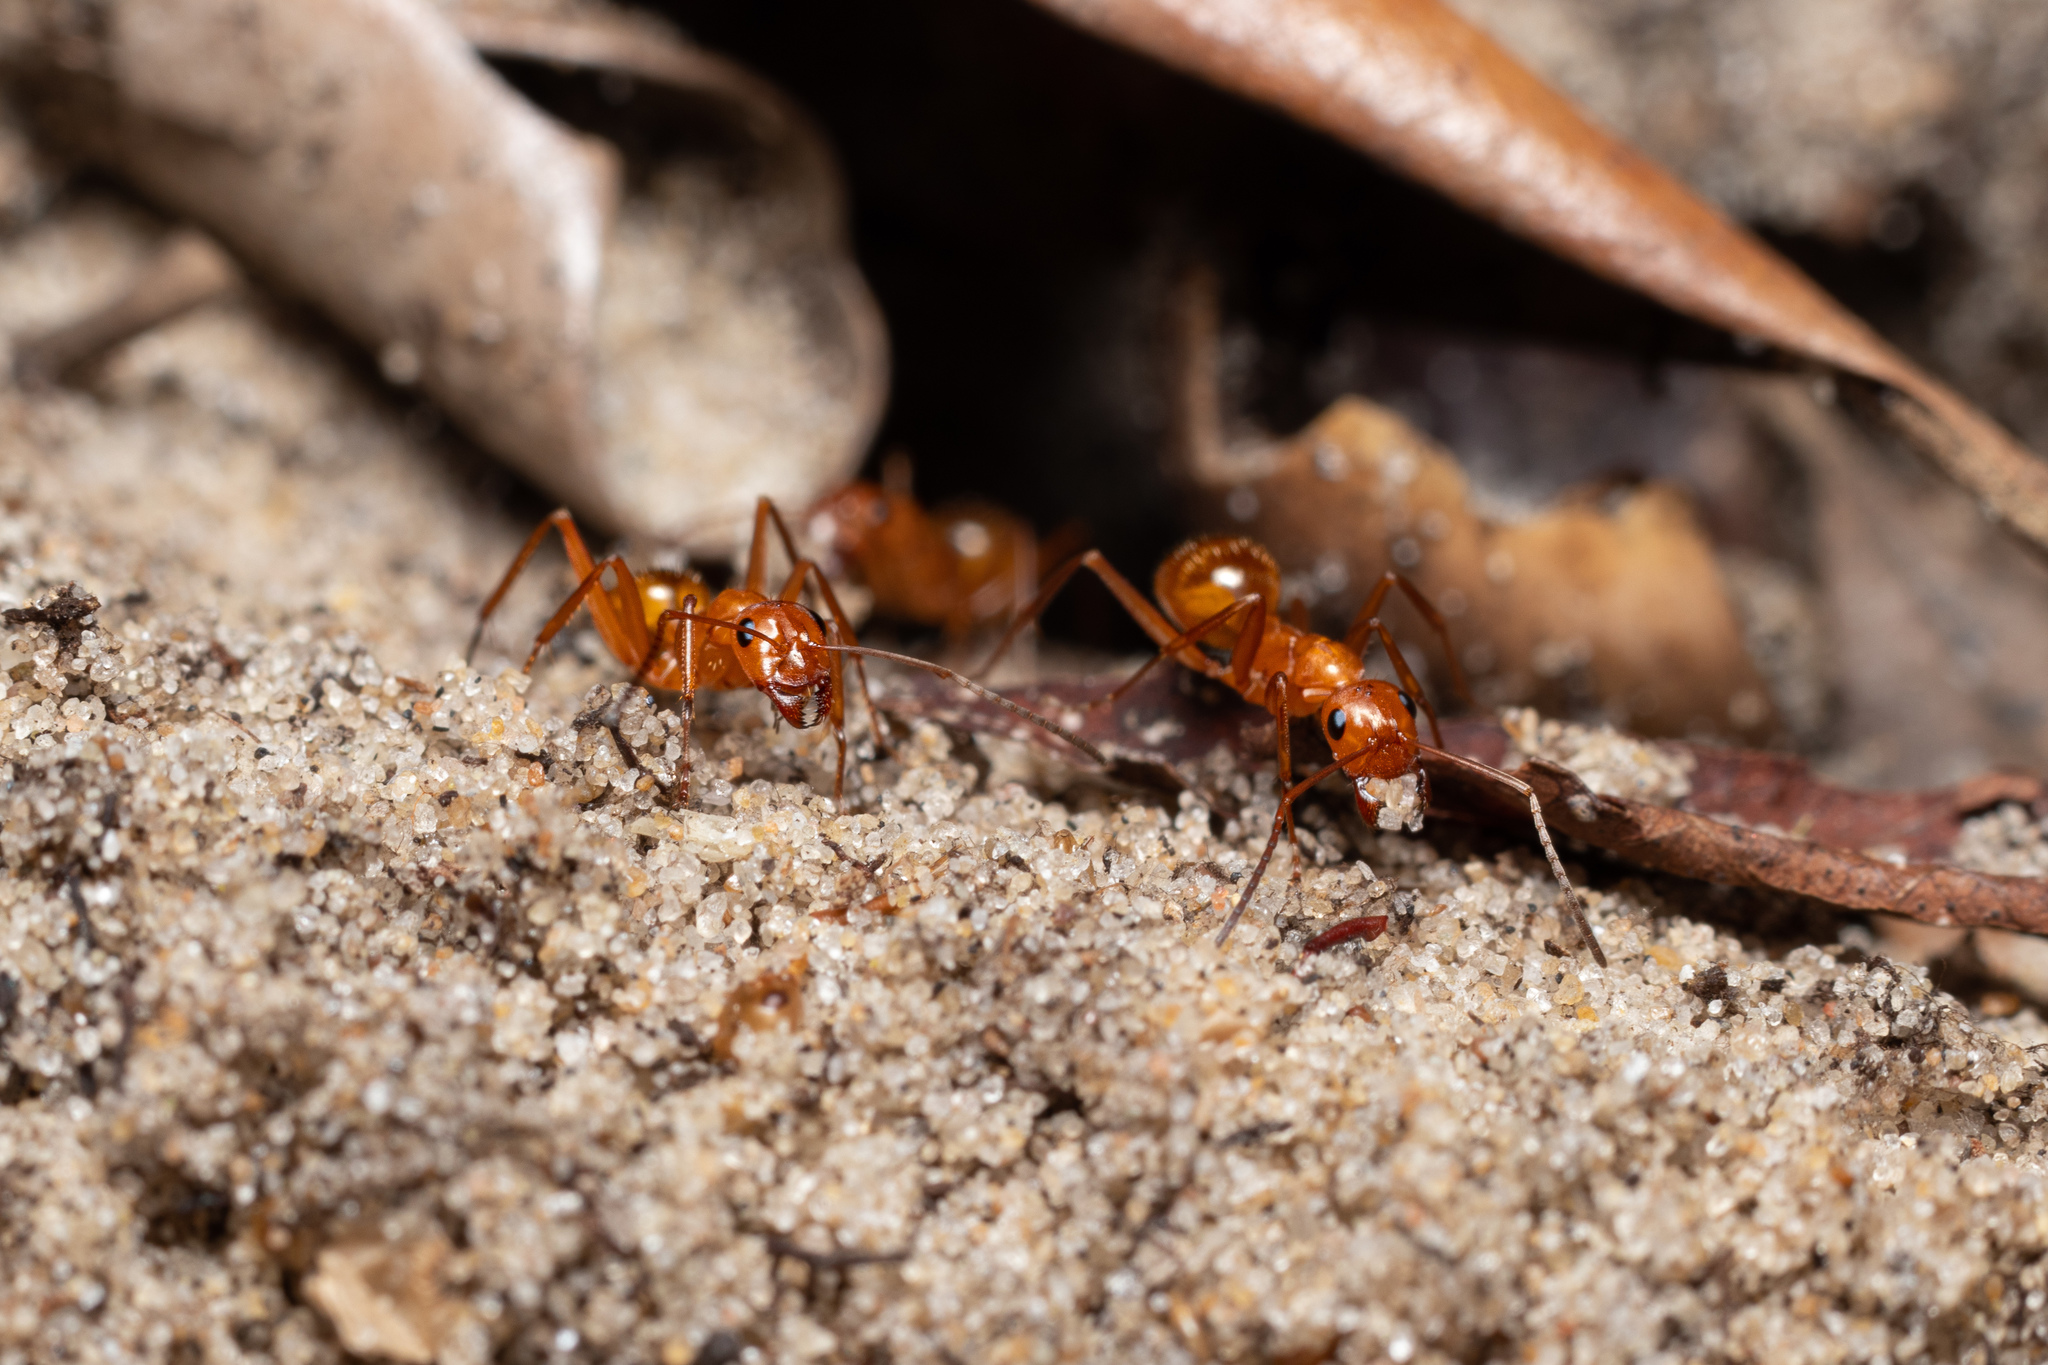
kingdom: Animalia
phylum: Arthropoda
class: Insecta
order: Hymenoptera
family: Formicidae
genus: Formica
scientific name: Formica pallidefulva
